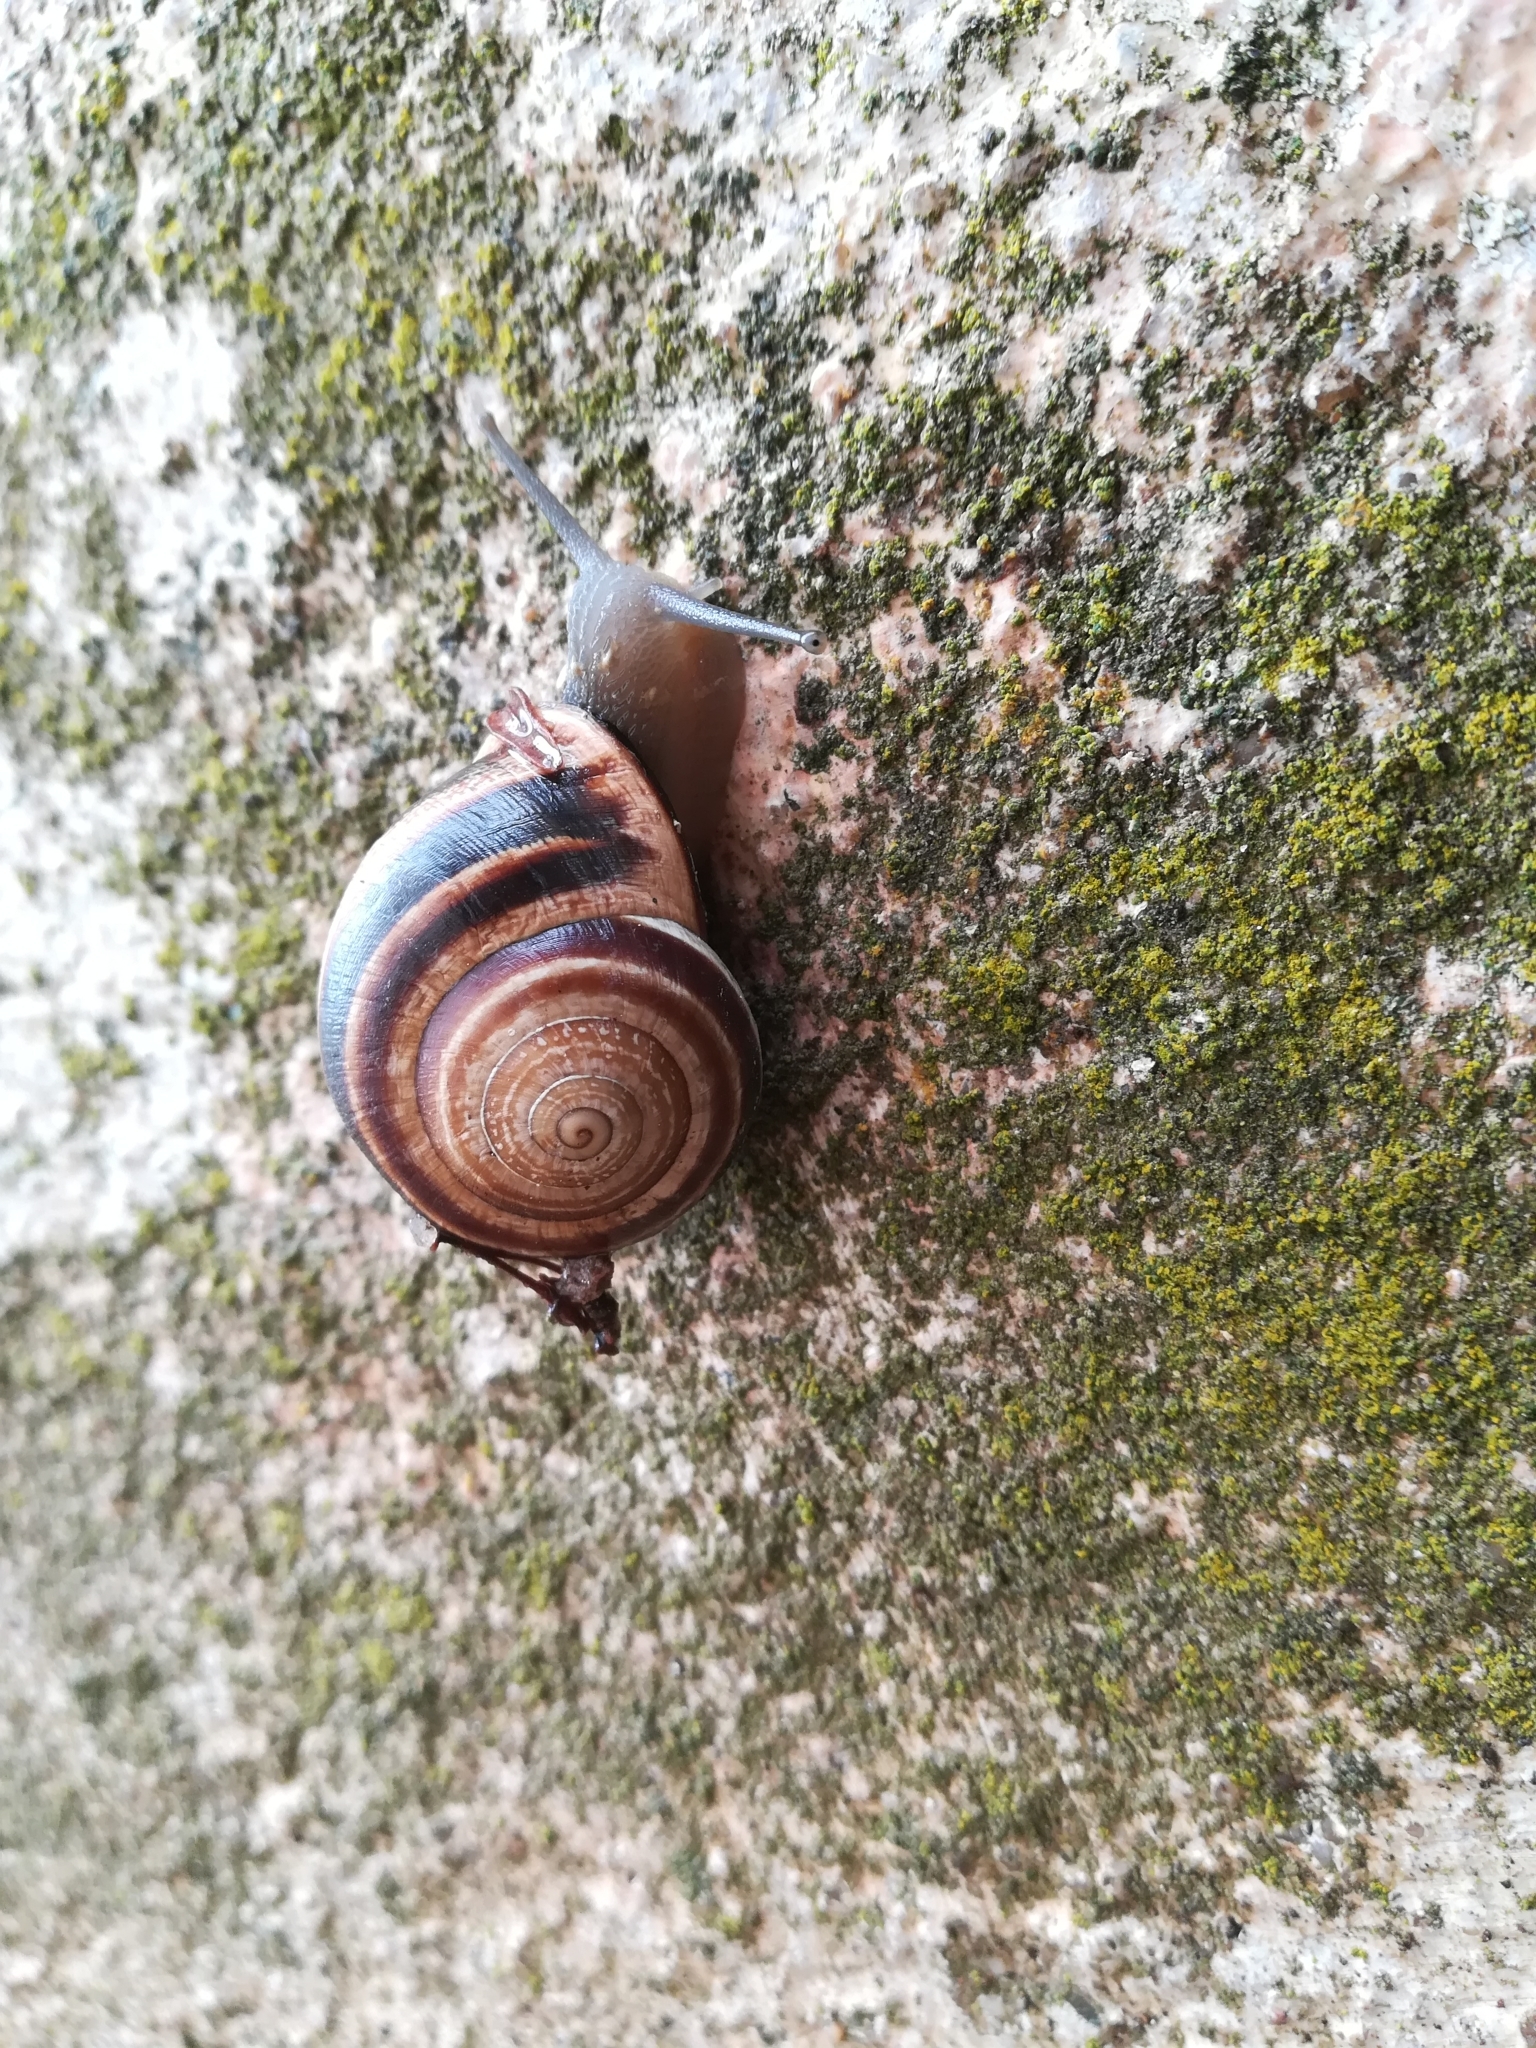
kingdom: Animalia
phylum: Mollusca
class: Gastropoda
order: Stylommatophora
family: Helicidae
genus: Otala
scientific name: Otala lactea
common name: Milk snail
